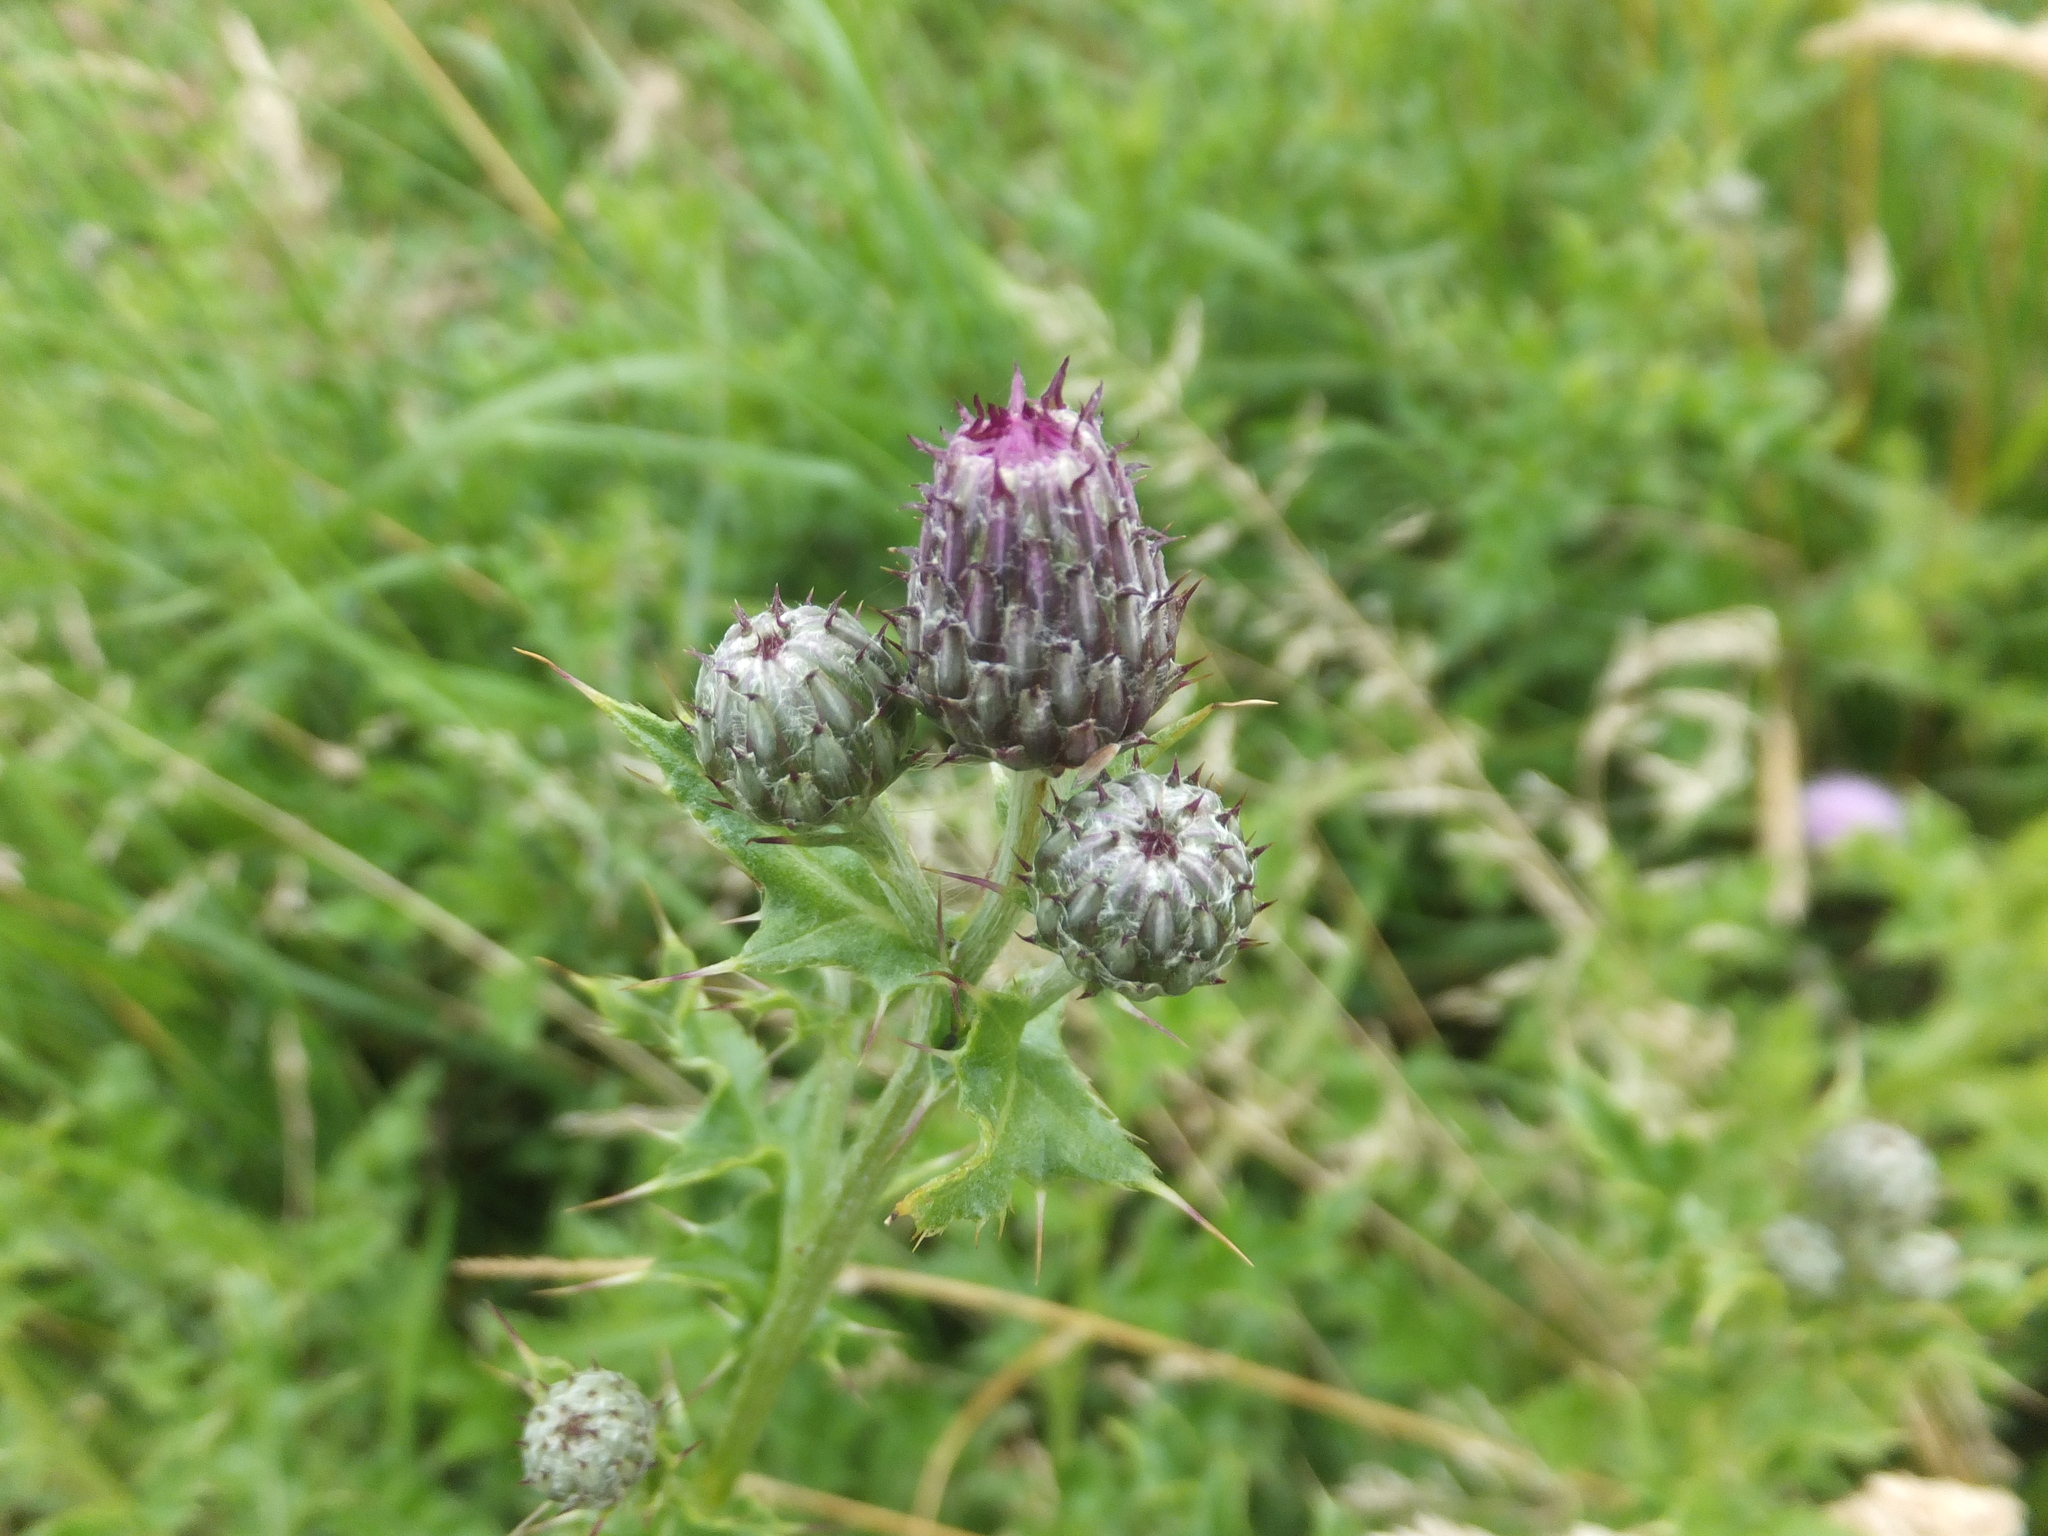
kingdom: Plantae
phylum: Tracheophyta
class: Magnoliopsida
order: Asterales
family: Asteraceae
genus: Cirsium
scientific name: Cirsium arvense
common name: Creeping thistle
